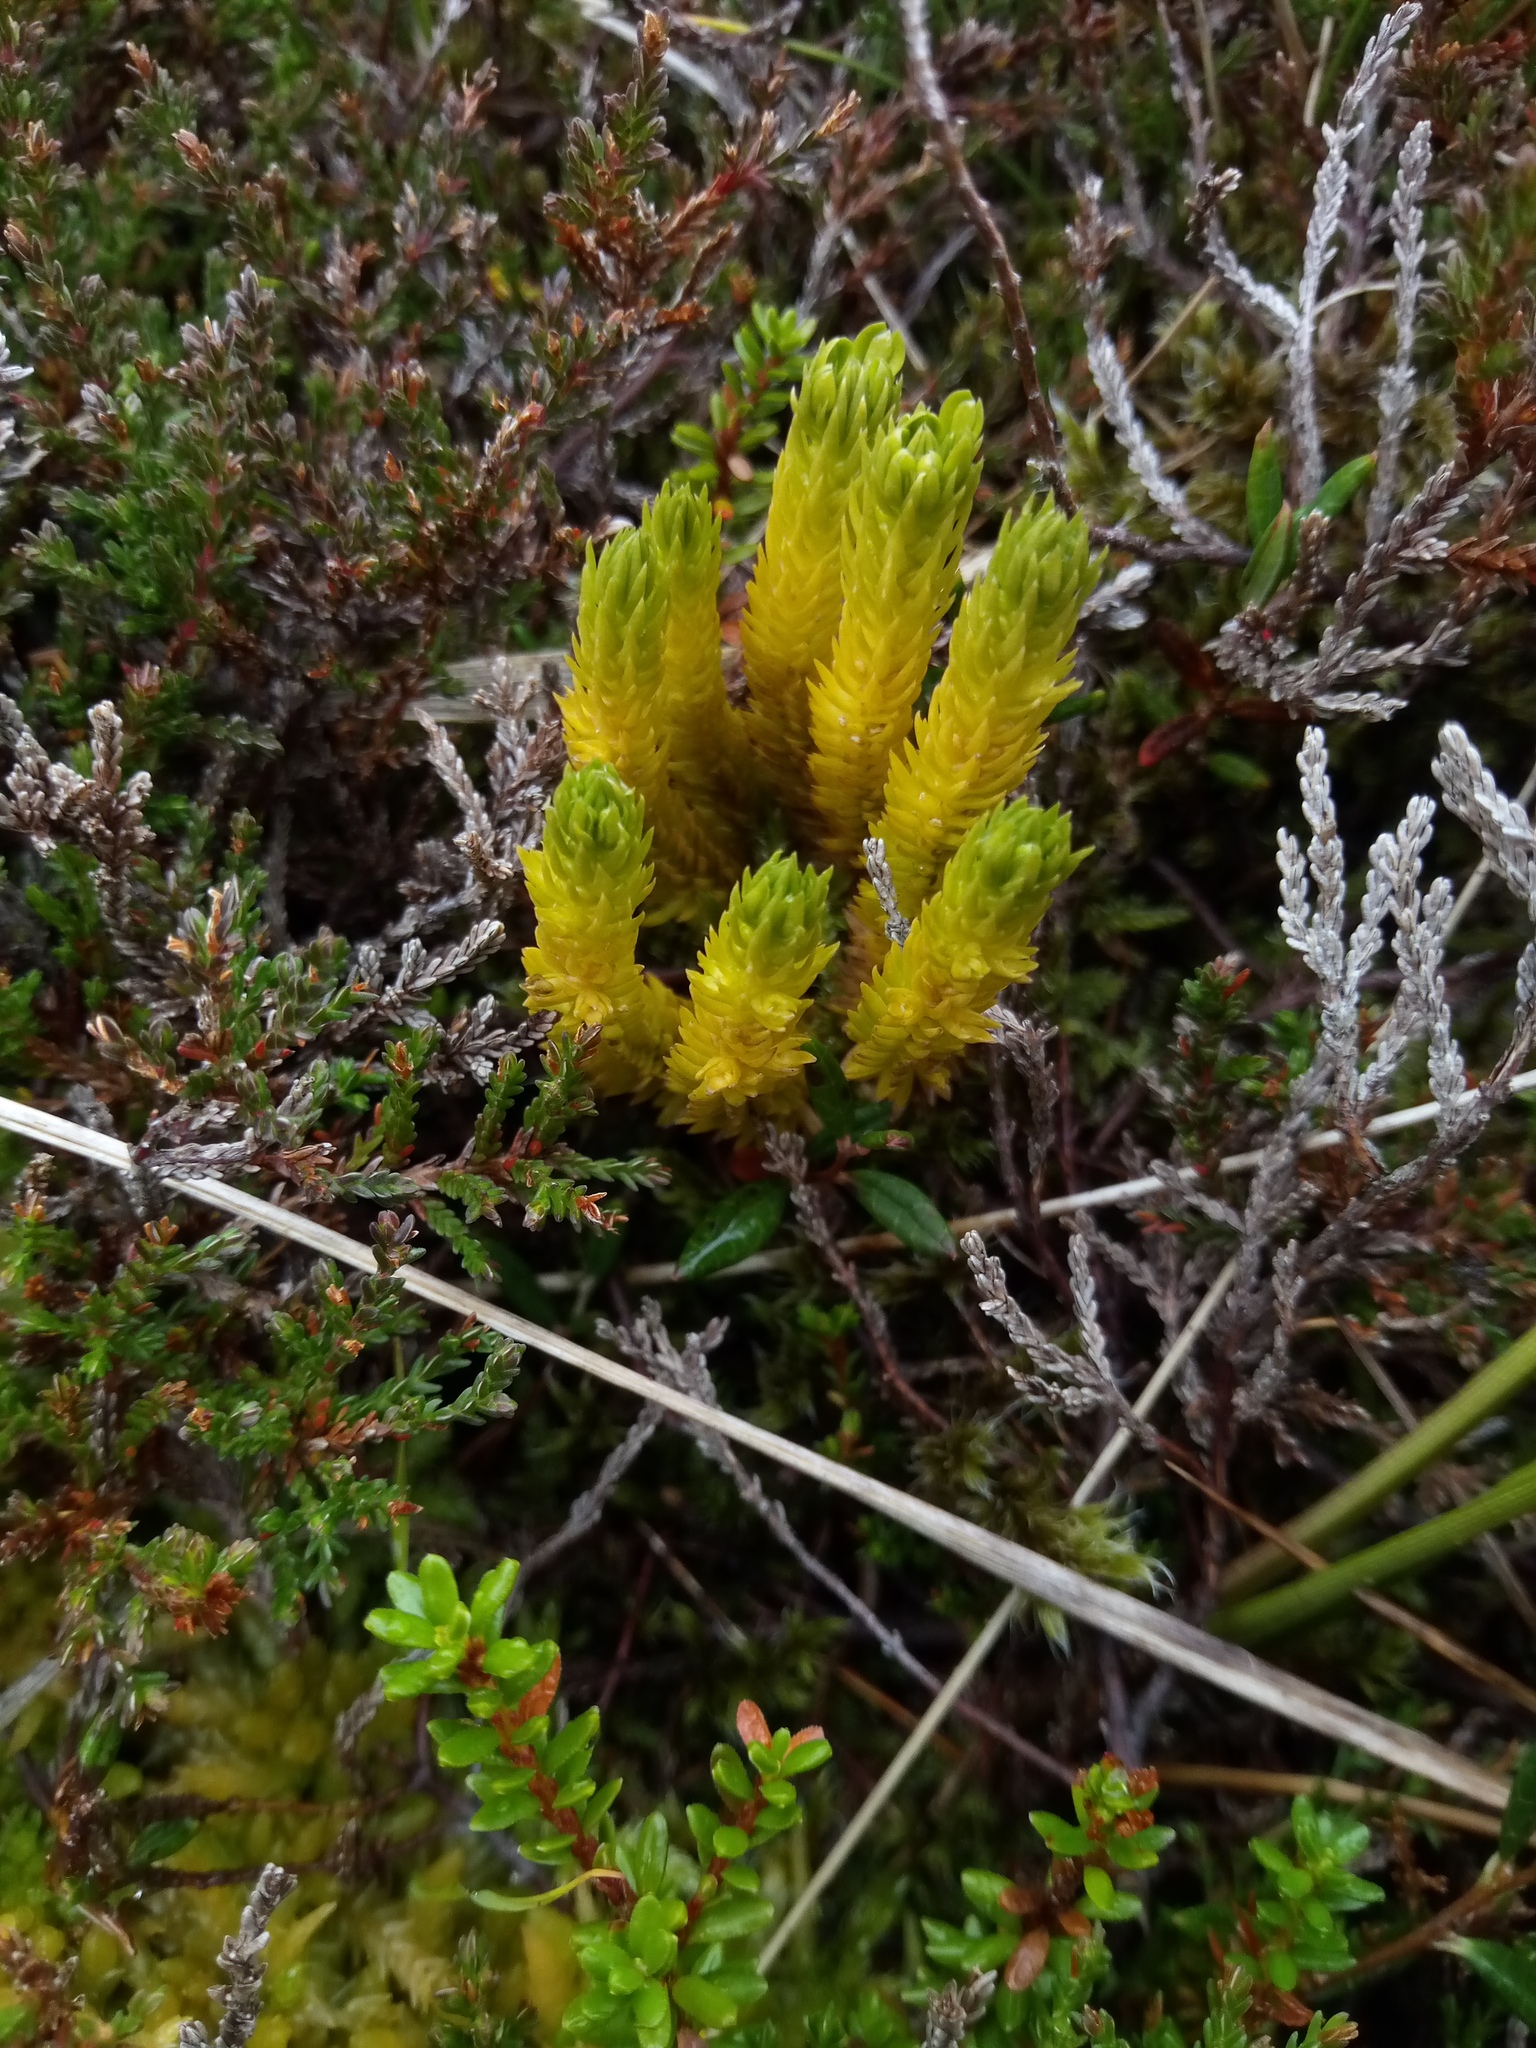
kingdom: Plantae
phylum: Tracheophyta
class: Lycopodiopsida
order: Lycopodiales
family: Lycopodiaceae
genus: Huperzia
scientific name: Huperzia selago
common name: Northern firmoss
